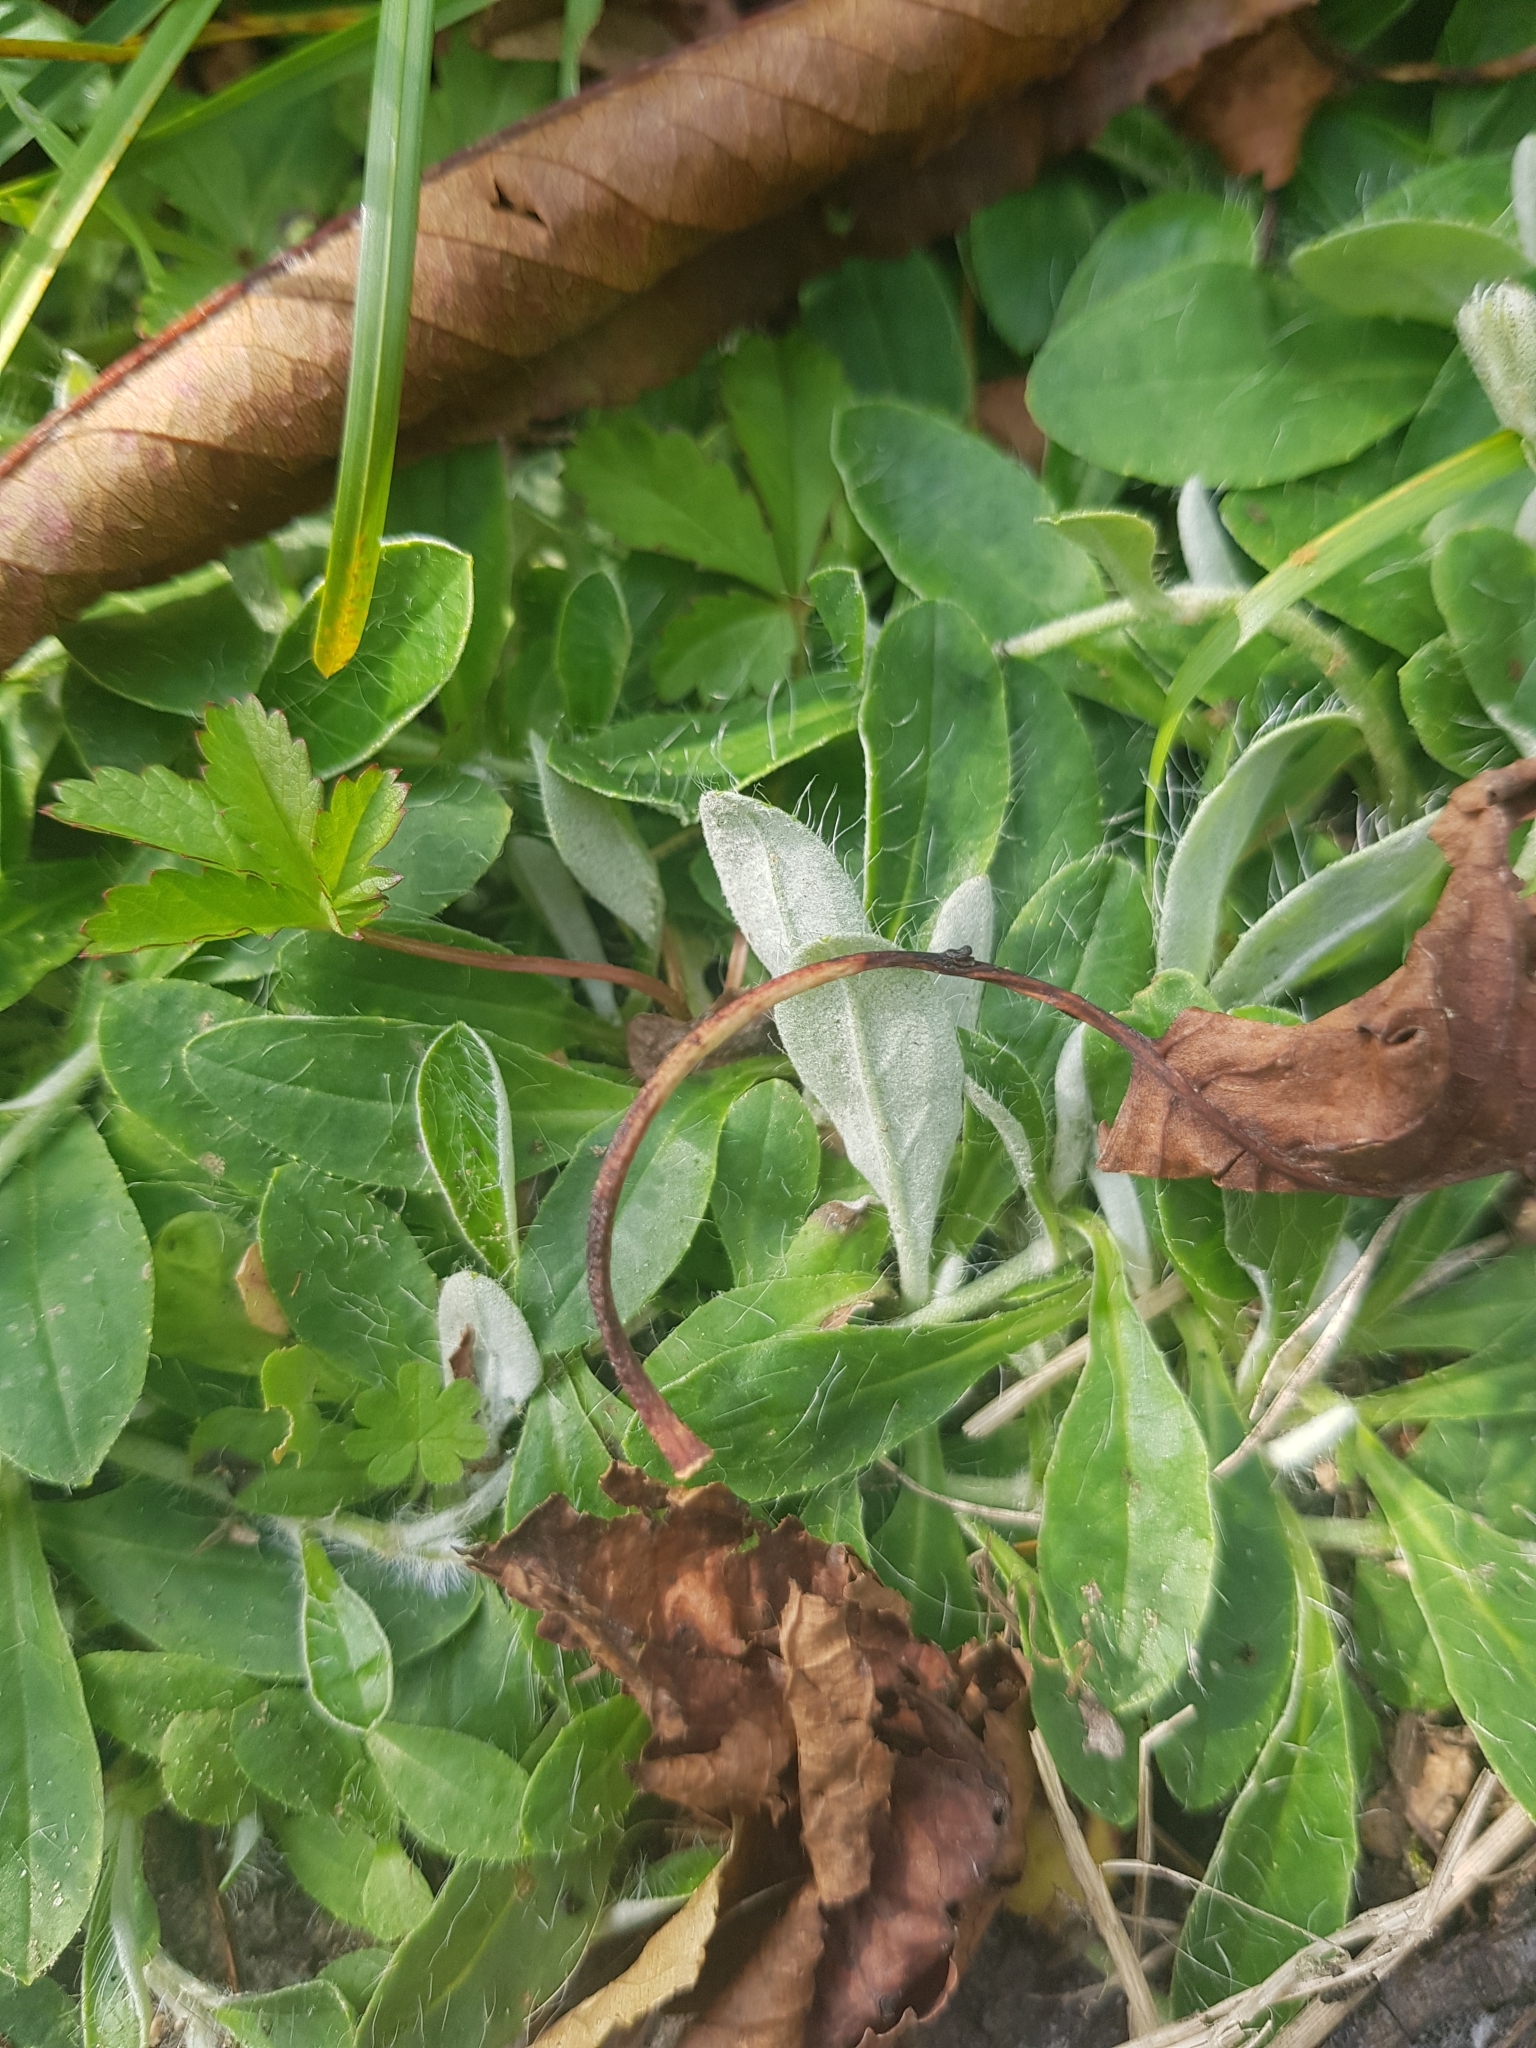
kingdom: Plantae
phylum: Tracheophyta
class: Magnoliopsida
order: Asterales
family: Asteraceae
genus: Pilosella
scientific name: Pilosella officinarum
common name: Mouse-ear hawkweed
